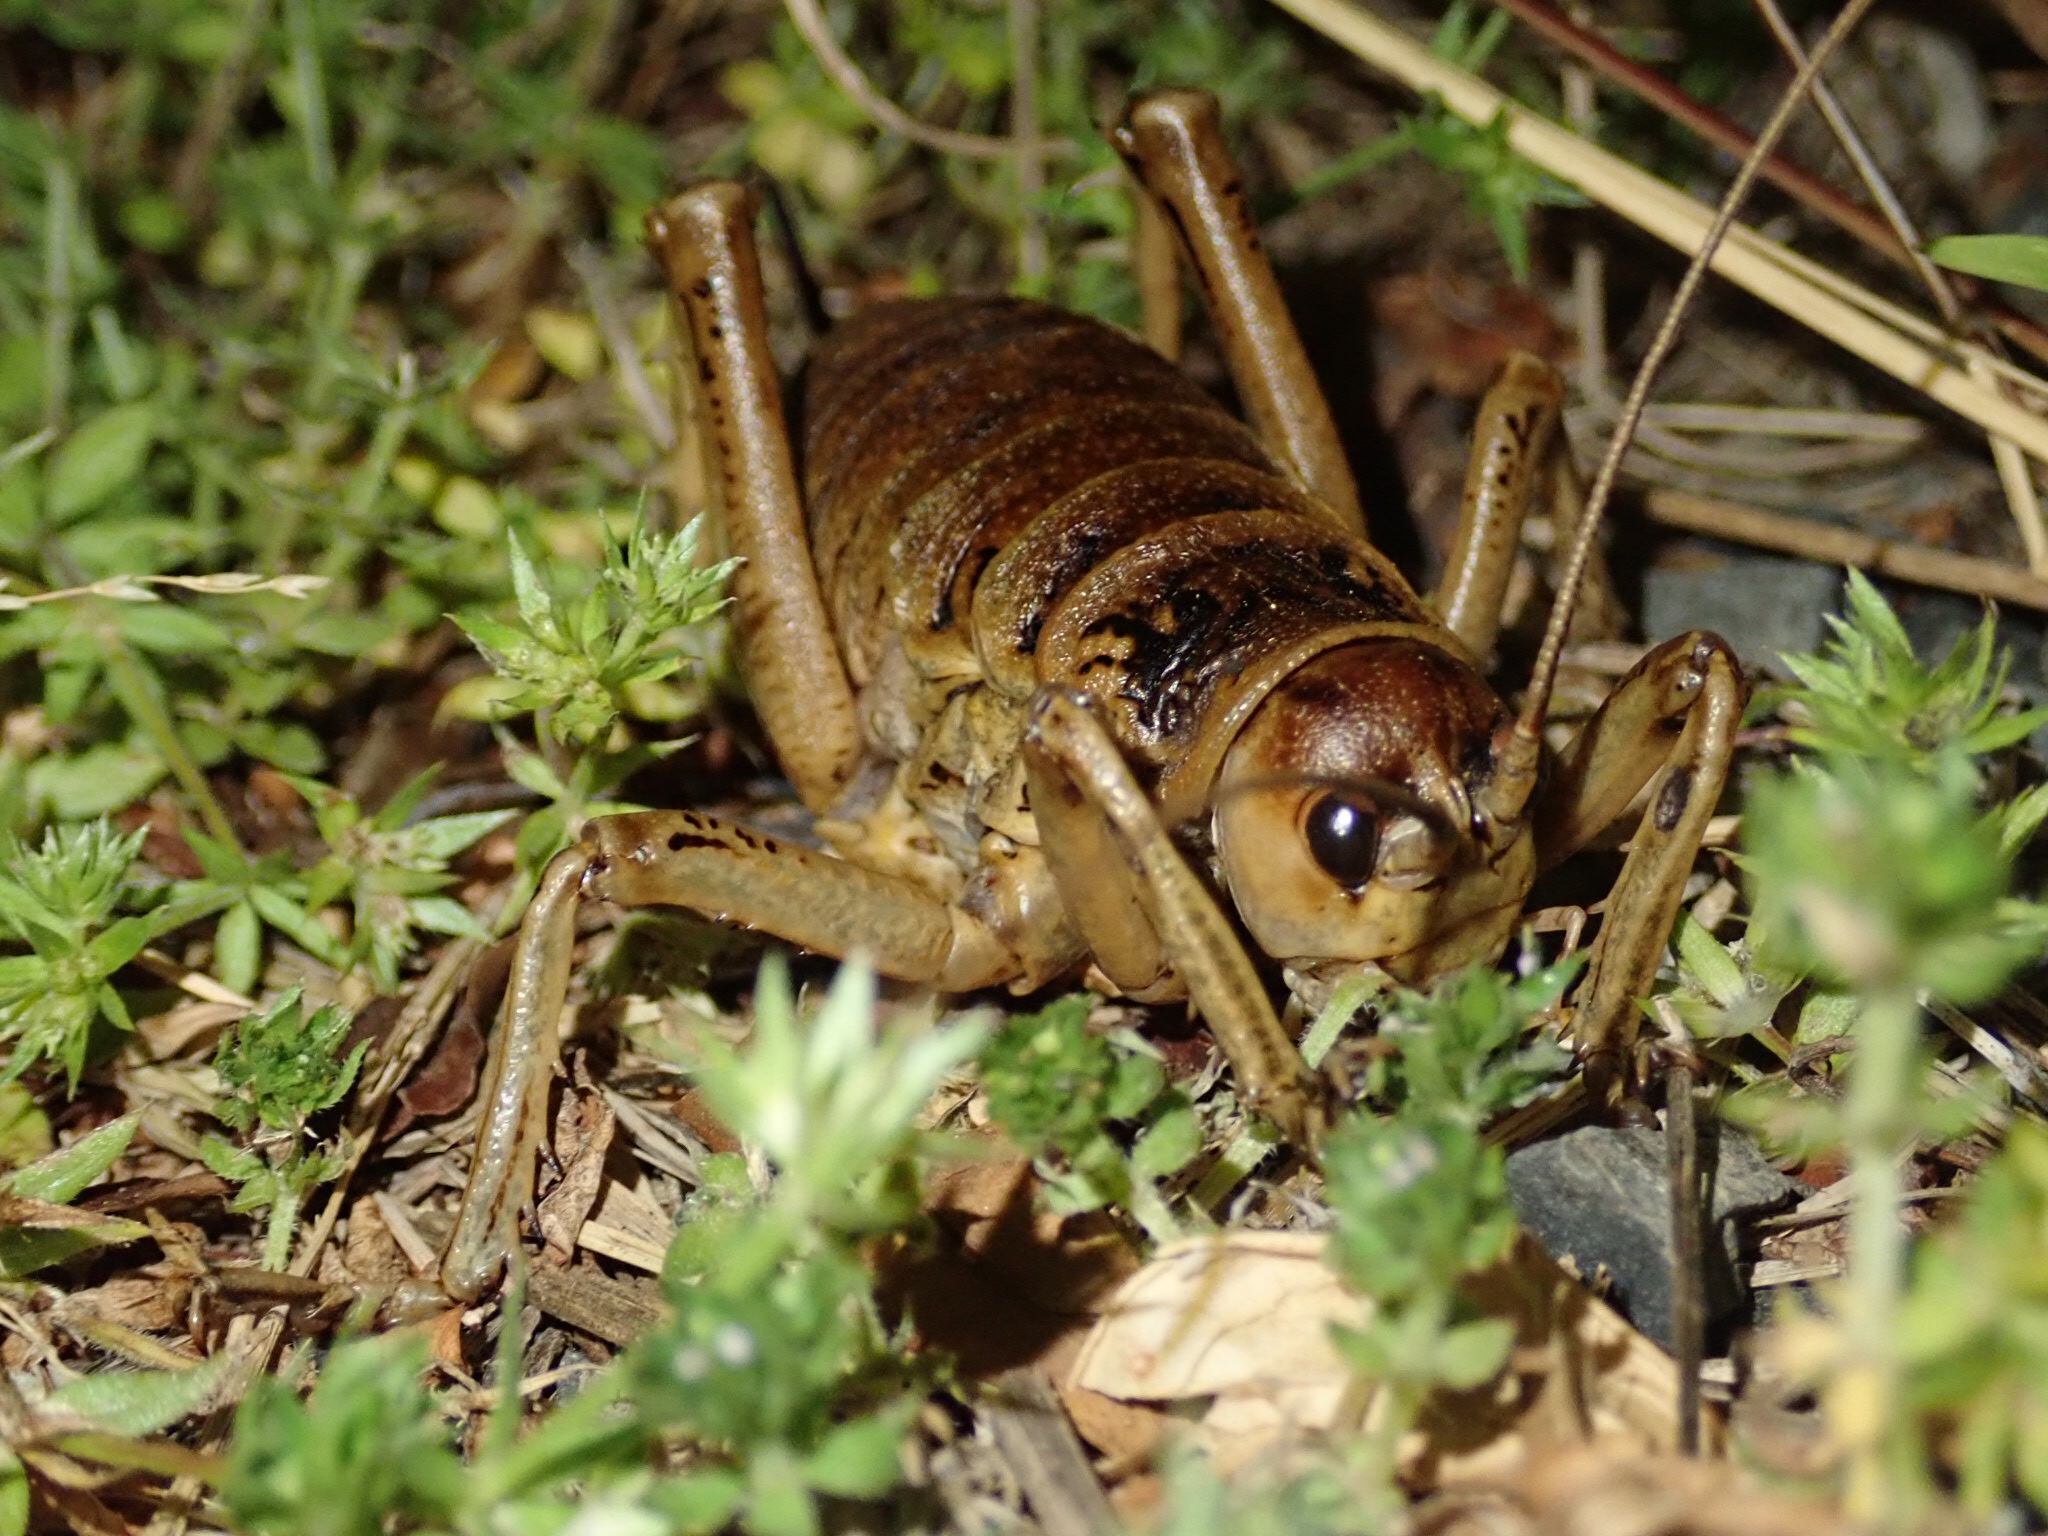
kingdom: Animalia
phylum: Arthropoda
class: Insecta
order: Orthoptera
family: Anostostomatidae
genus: Deinacrida
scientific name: Deinacrida rugosa
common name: Stephens island weta
